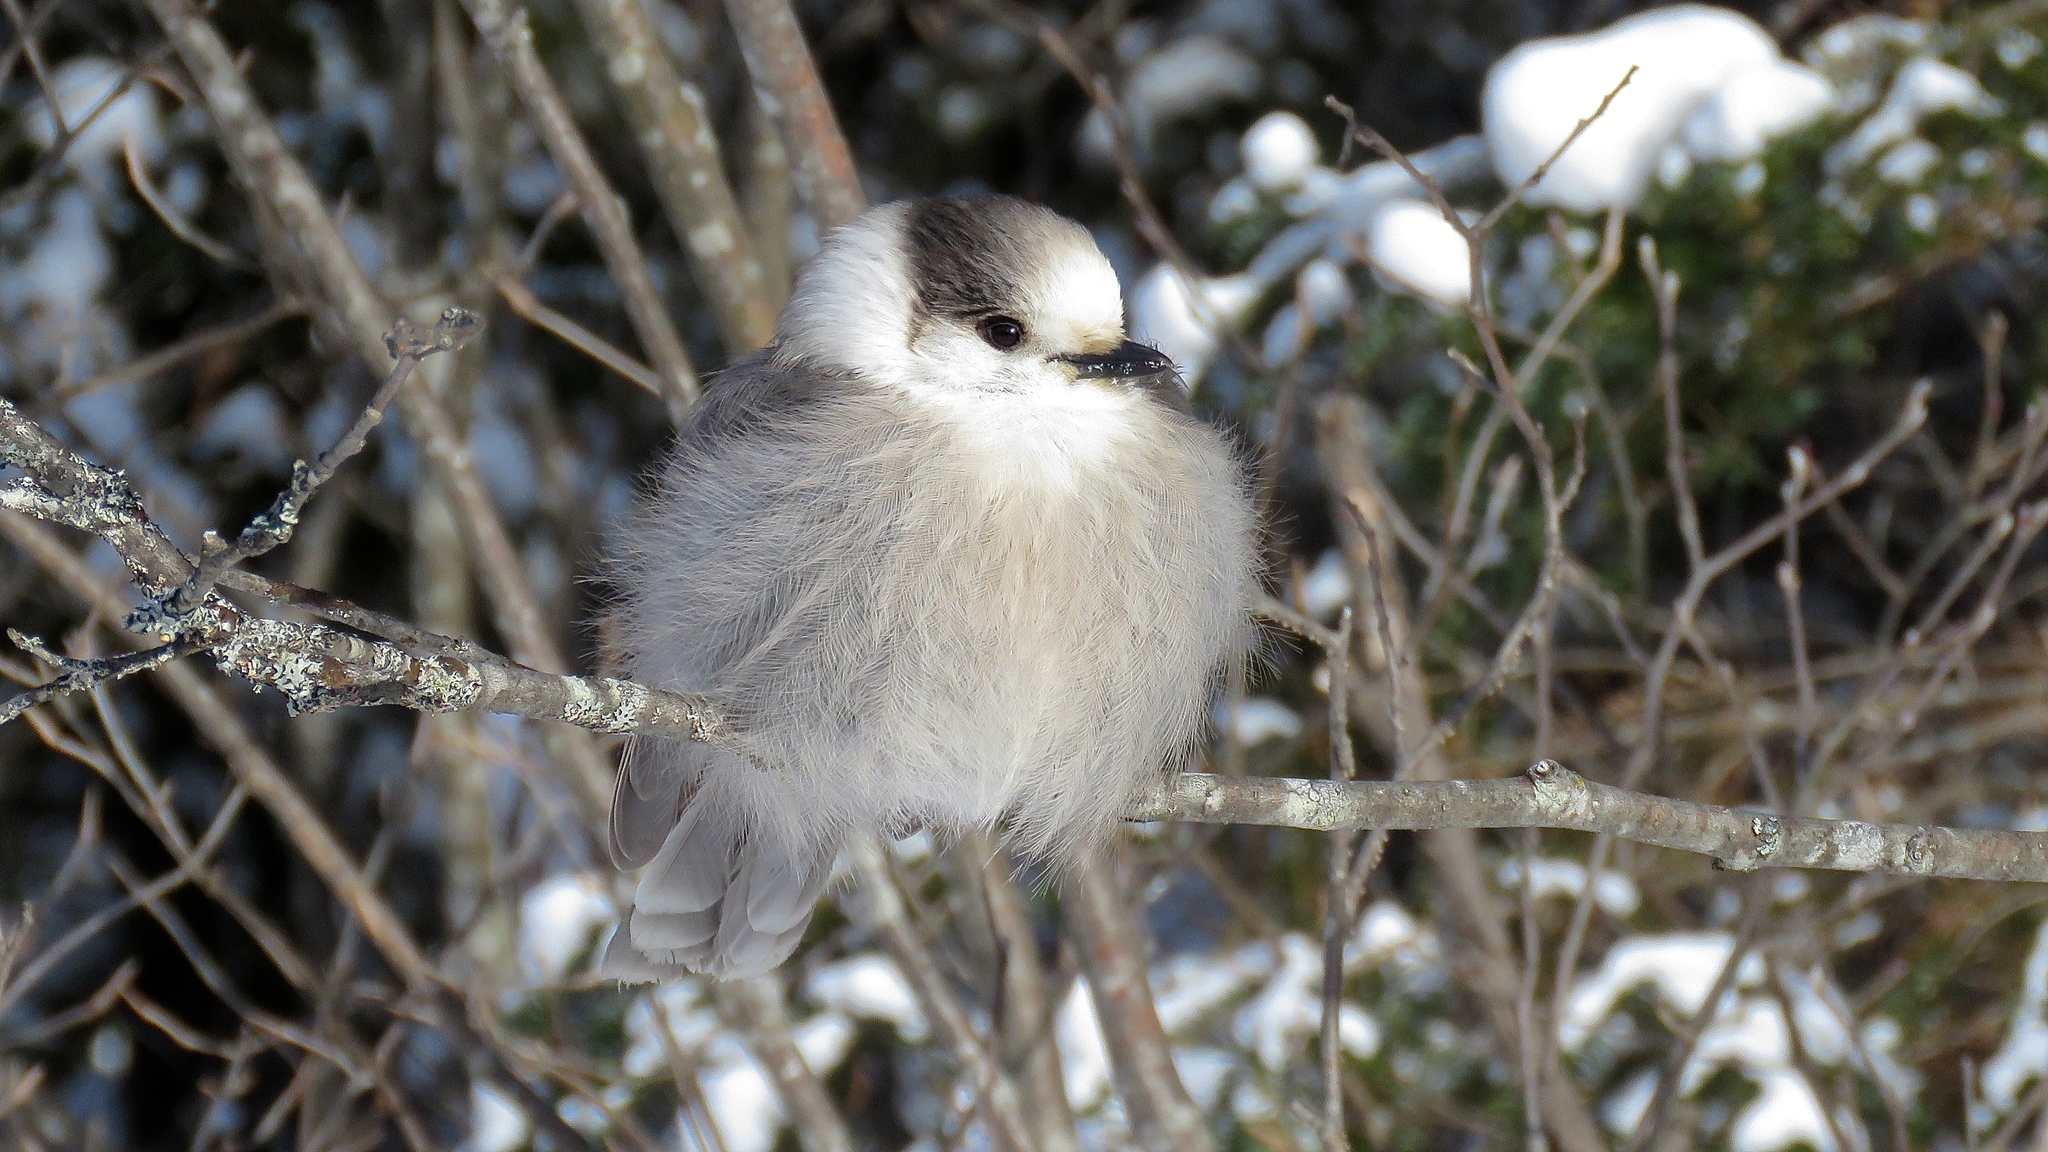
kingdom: Animalia
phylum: Chordata
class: Aves
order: Passeriformes
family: Corvidae
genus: Perisoreus
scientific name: Perisoreus canadensis
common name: Gray jay
